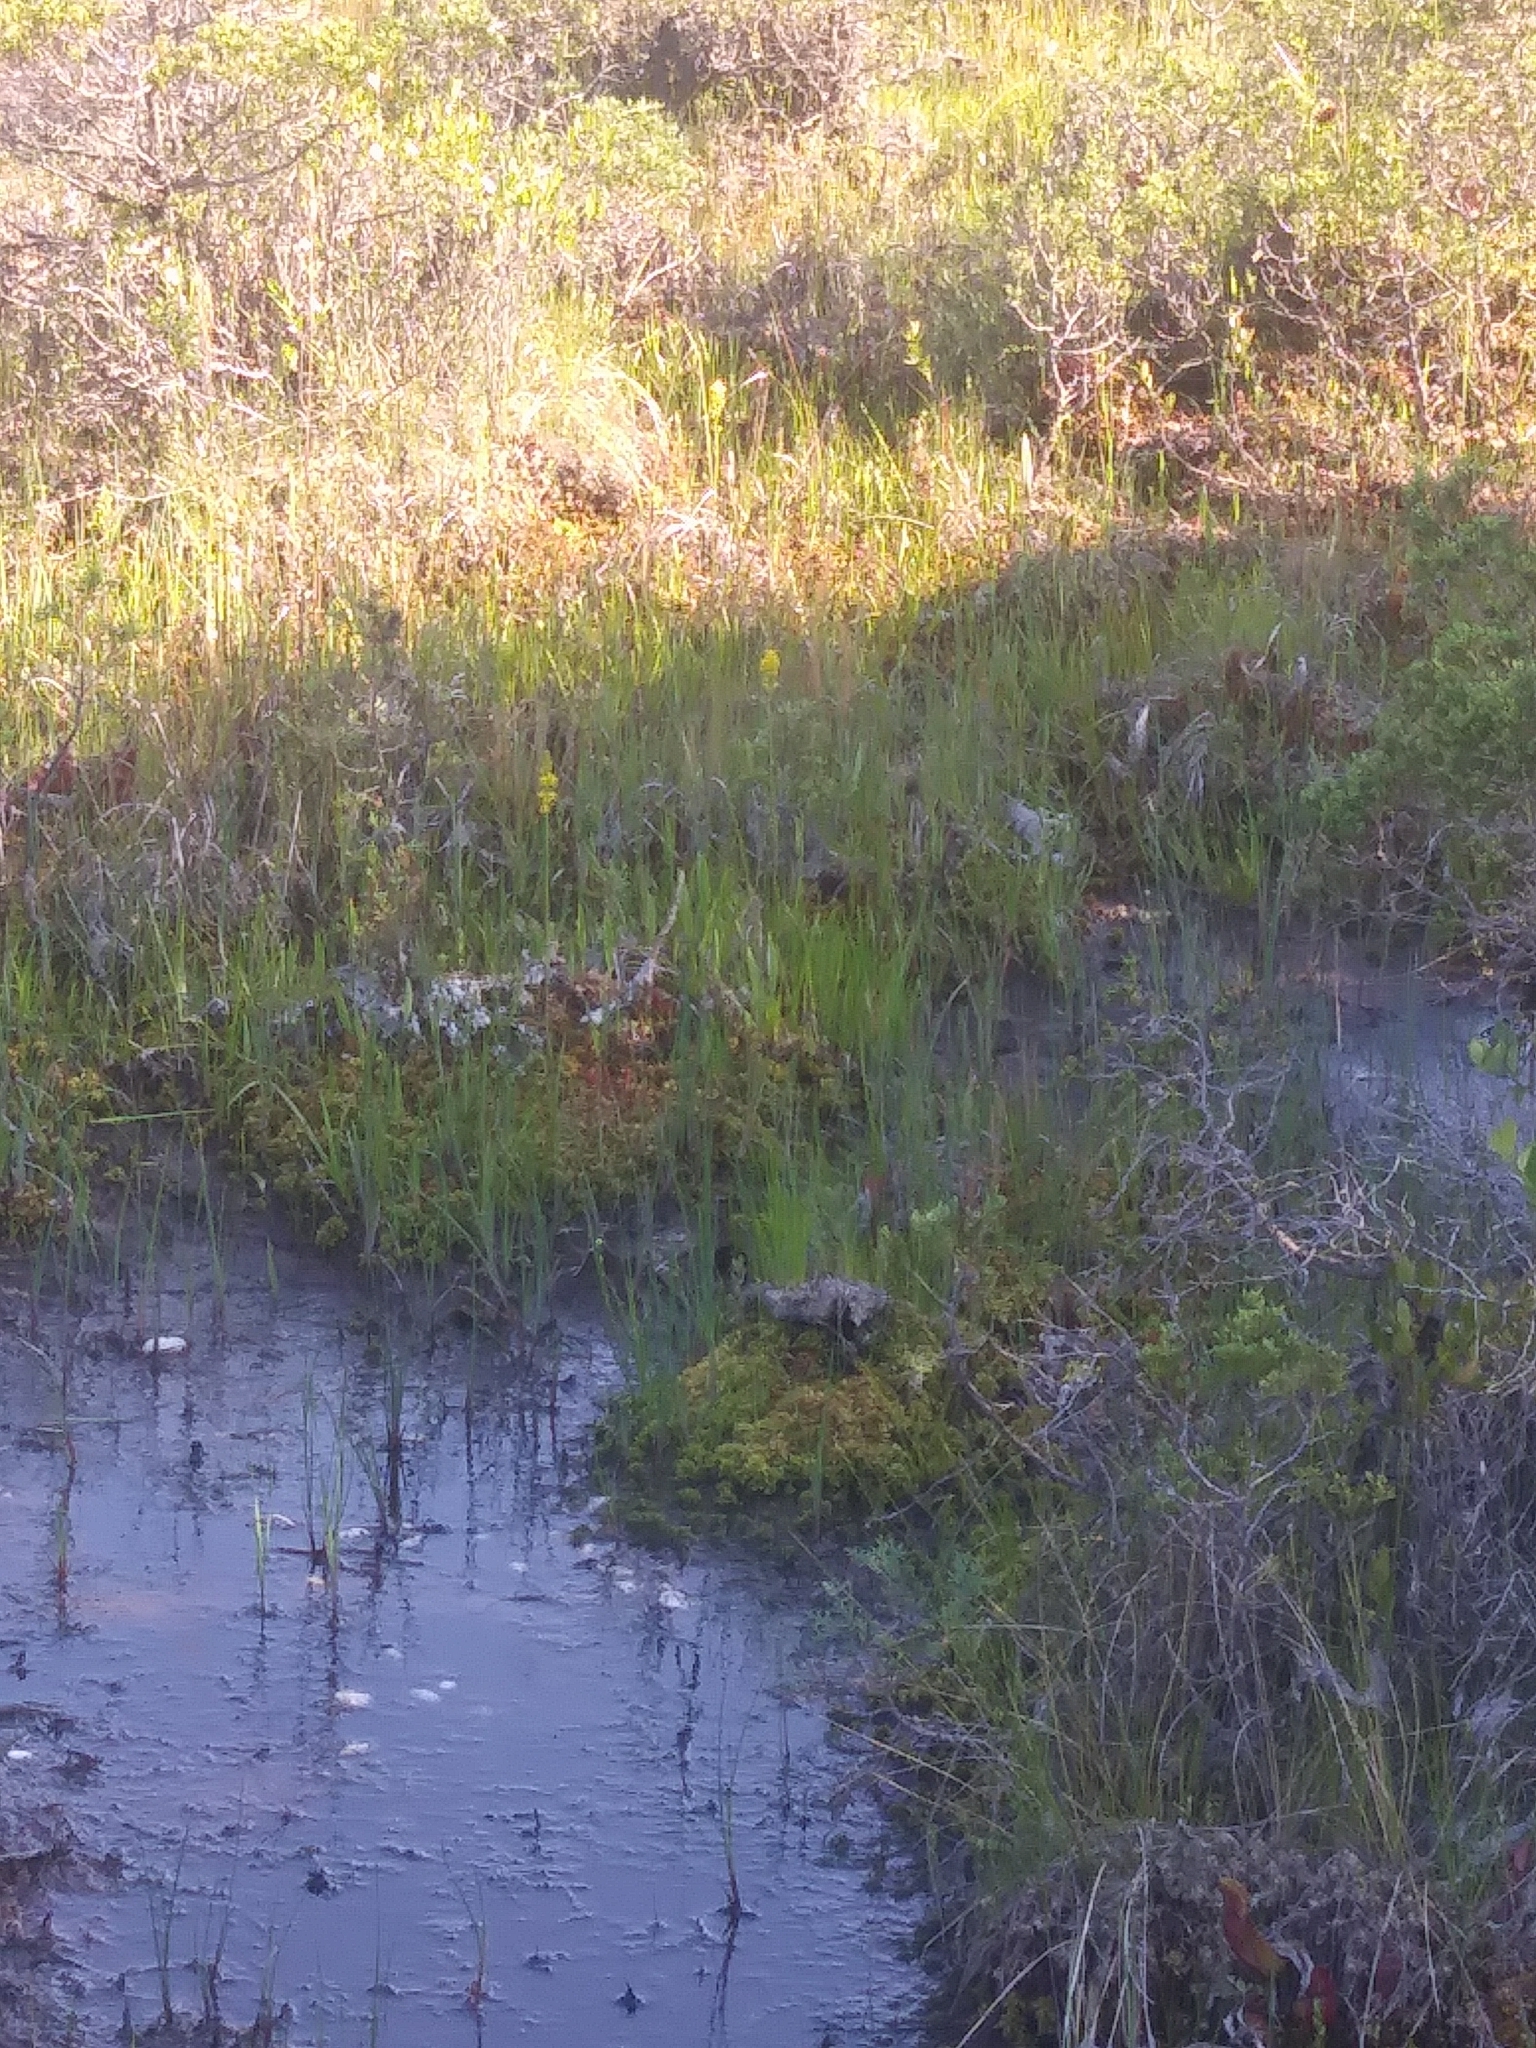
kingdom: Plantae
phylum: Tracheophyta
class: Liliopsida
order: Dioscoreales
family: Nartheciaceae
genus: Narthecium
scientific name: Narthecium americanum
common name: Bog-asphodel
